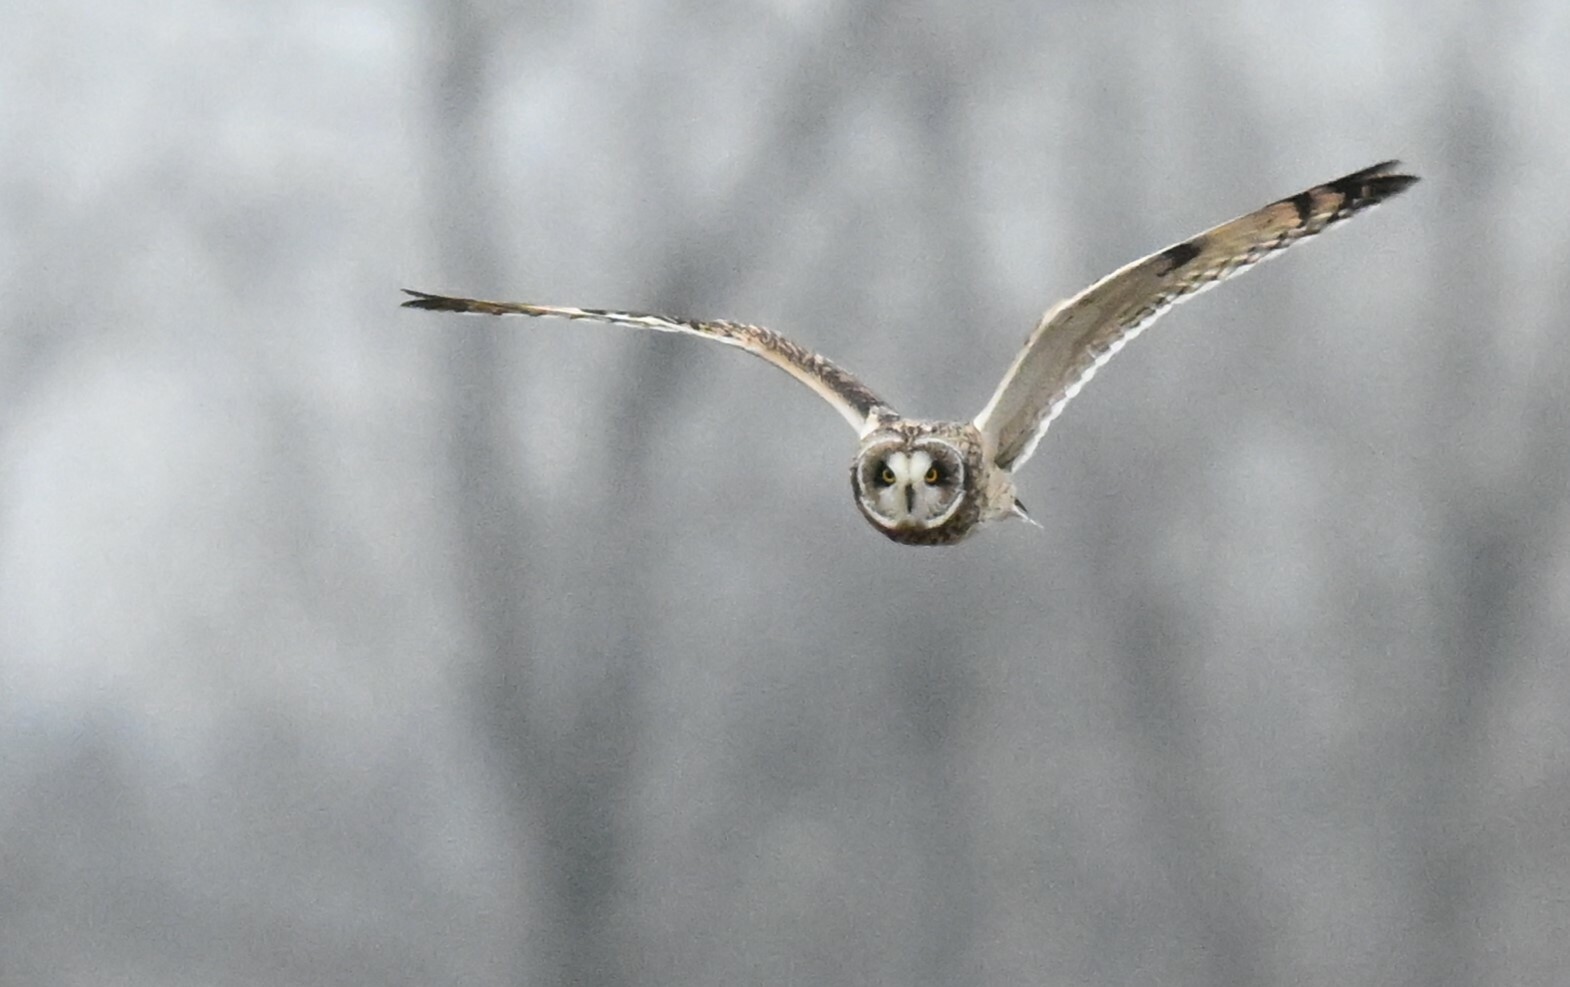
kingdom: Animalia
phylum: Chordata
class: Aves
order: Strigiformes
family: Strigidae
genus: Asio
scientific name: Asio flammeus
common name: Short-eared owl
